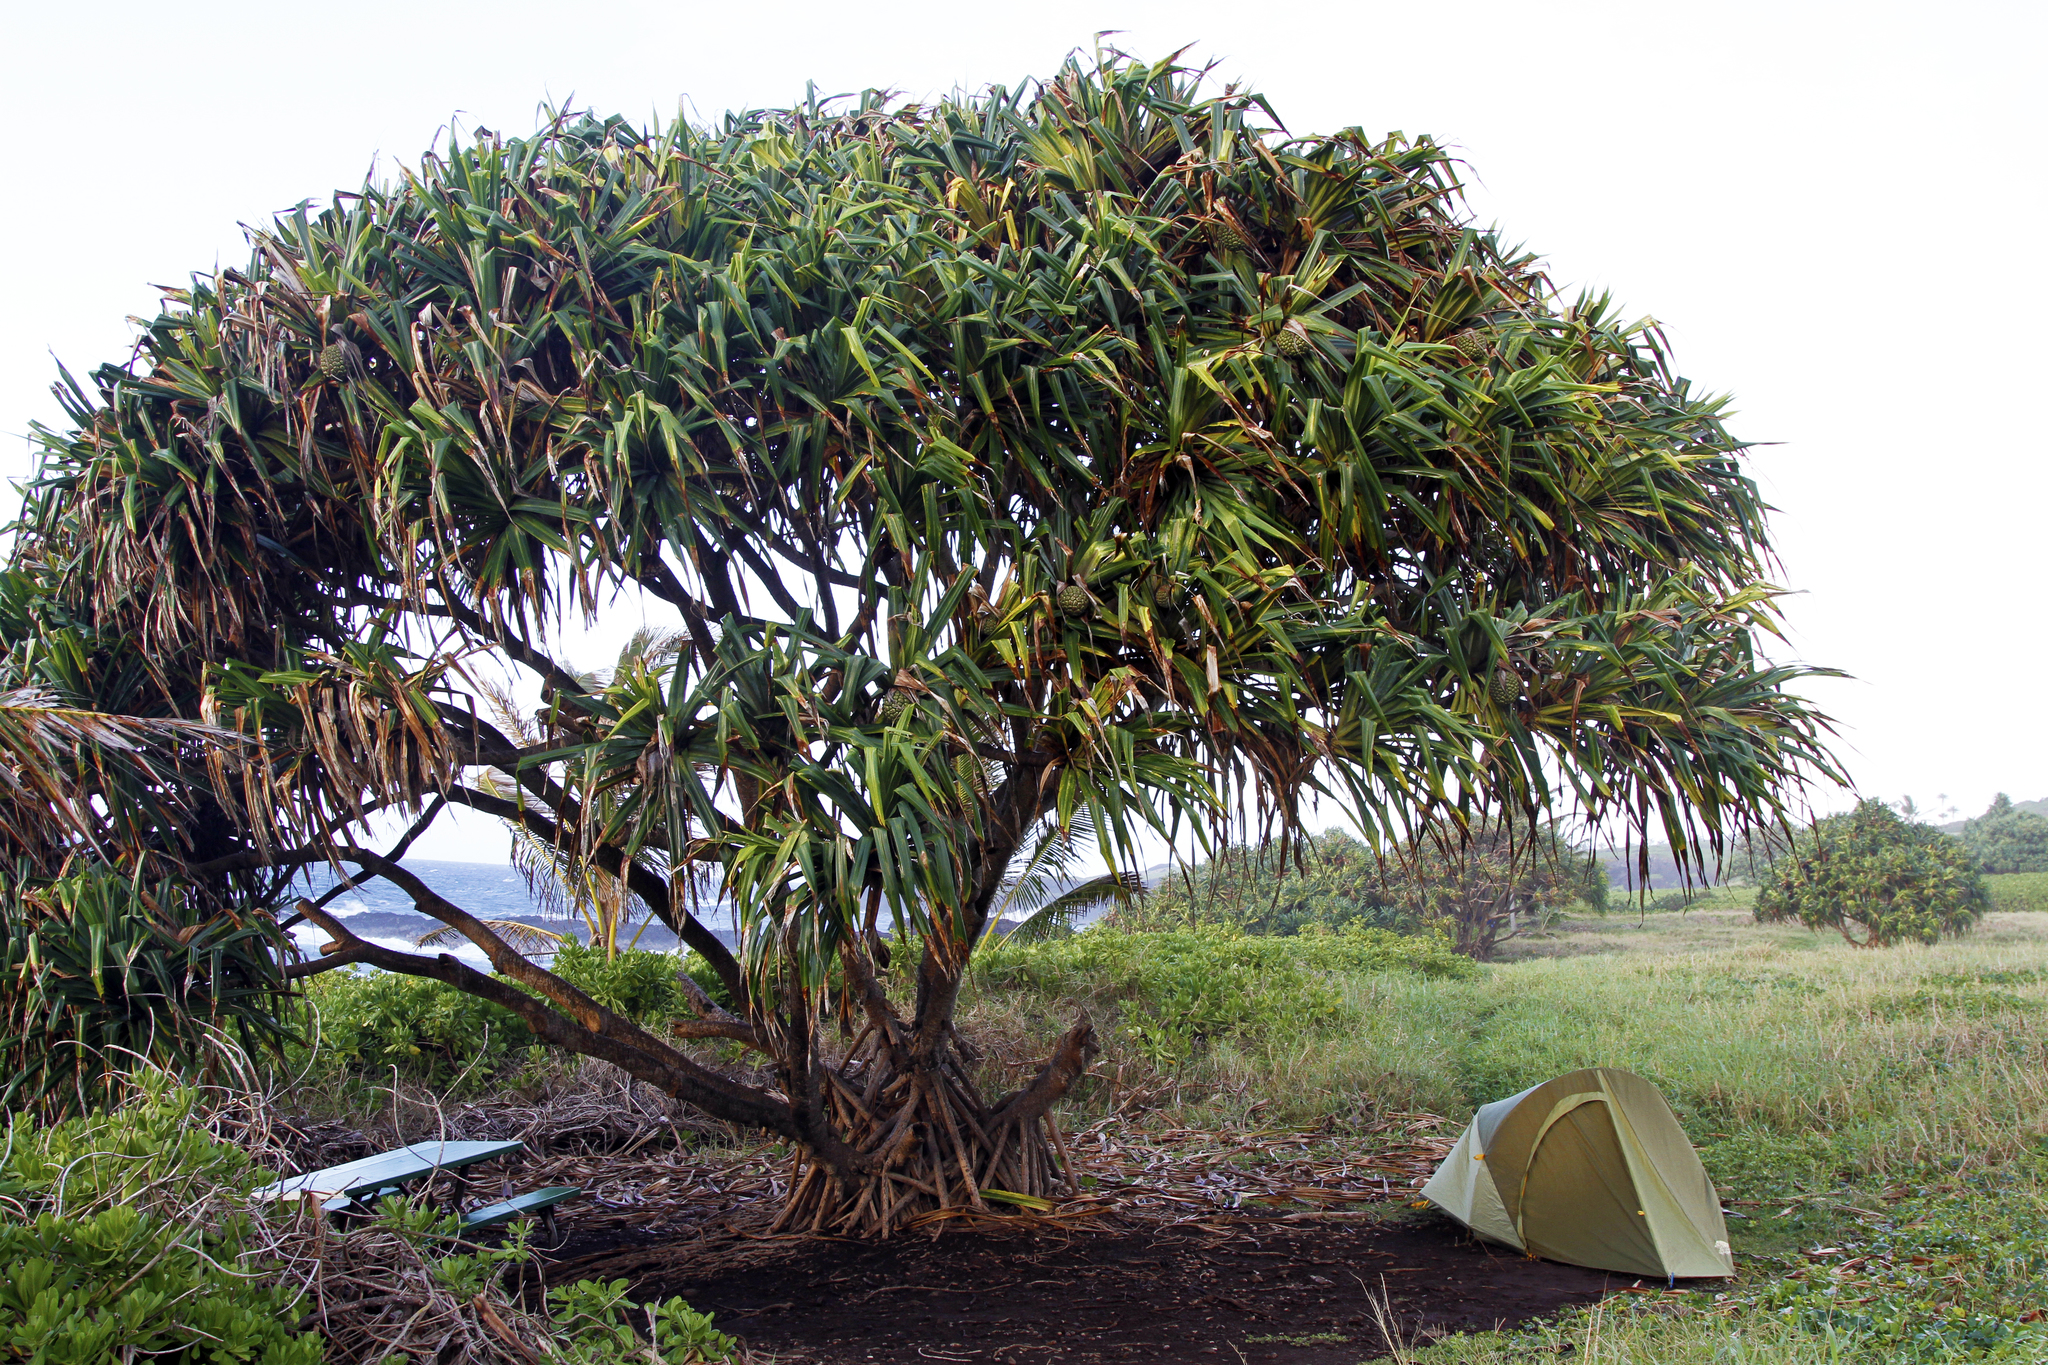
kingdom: Plantae
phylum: Tracheophyta
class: Liliopsida
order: Pandanales
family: Pandanaceae
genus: Pandanus
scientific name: Pandanus tectorius
